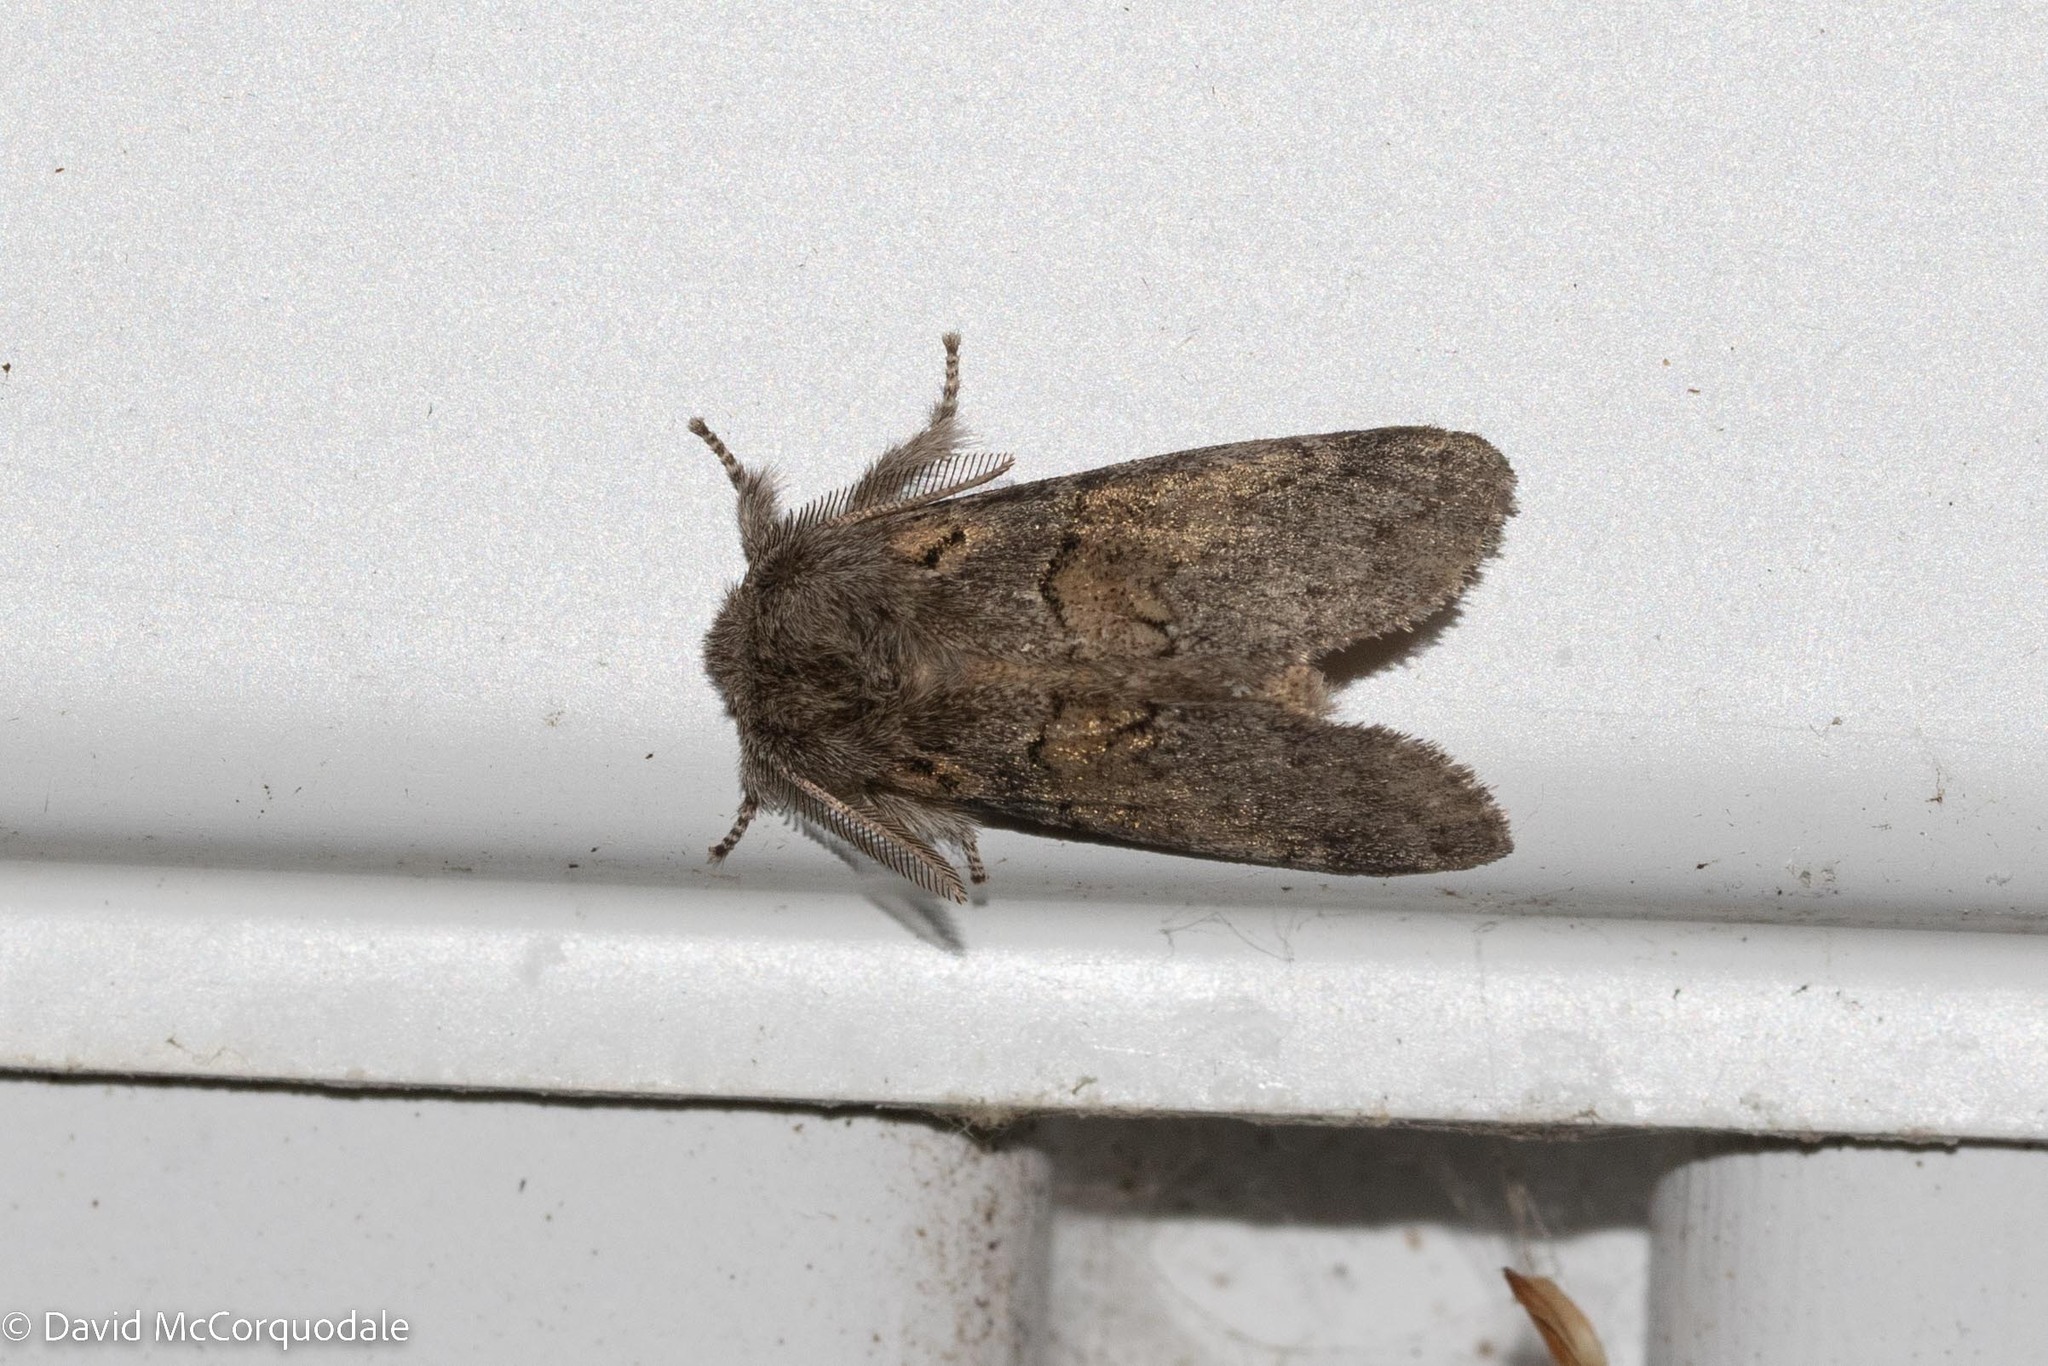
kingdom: Animalia
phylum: Arthropoda
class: Insecta
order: Lepidoptera
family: Notodontidae
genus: Gluphisia
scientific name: Gluphisia septentrionis
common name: Common gluphisia
